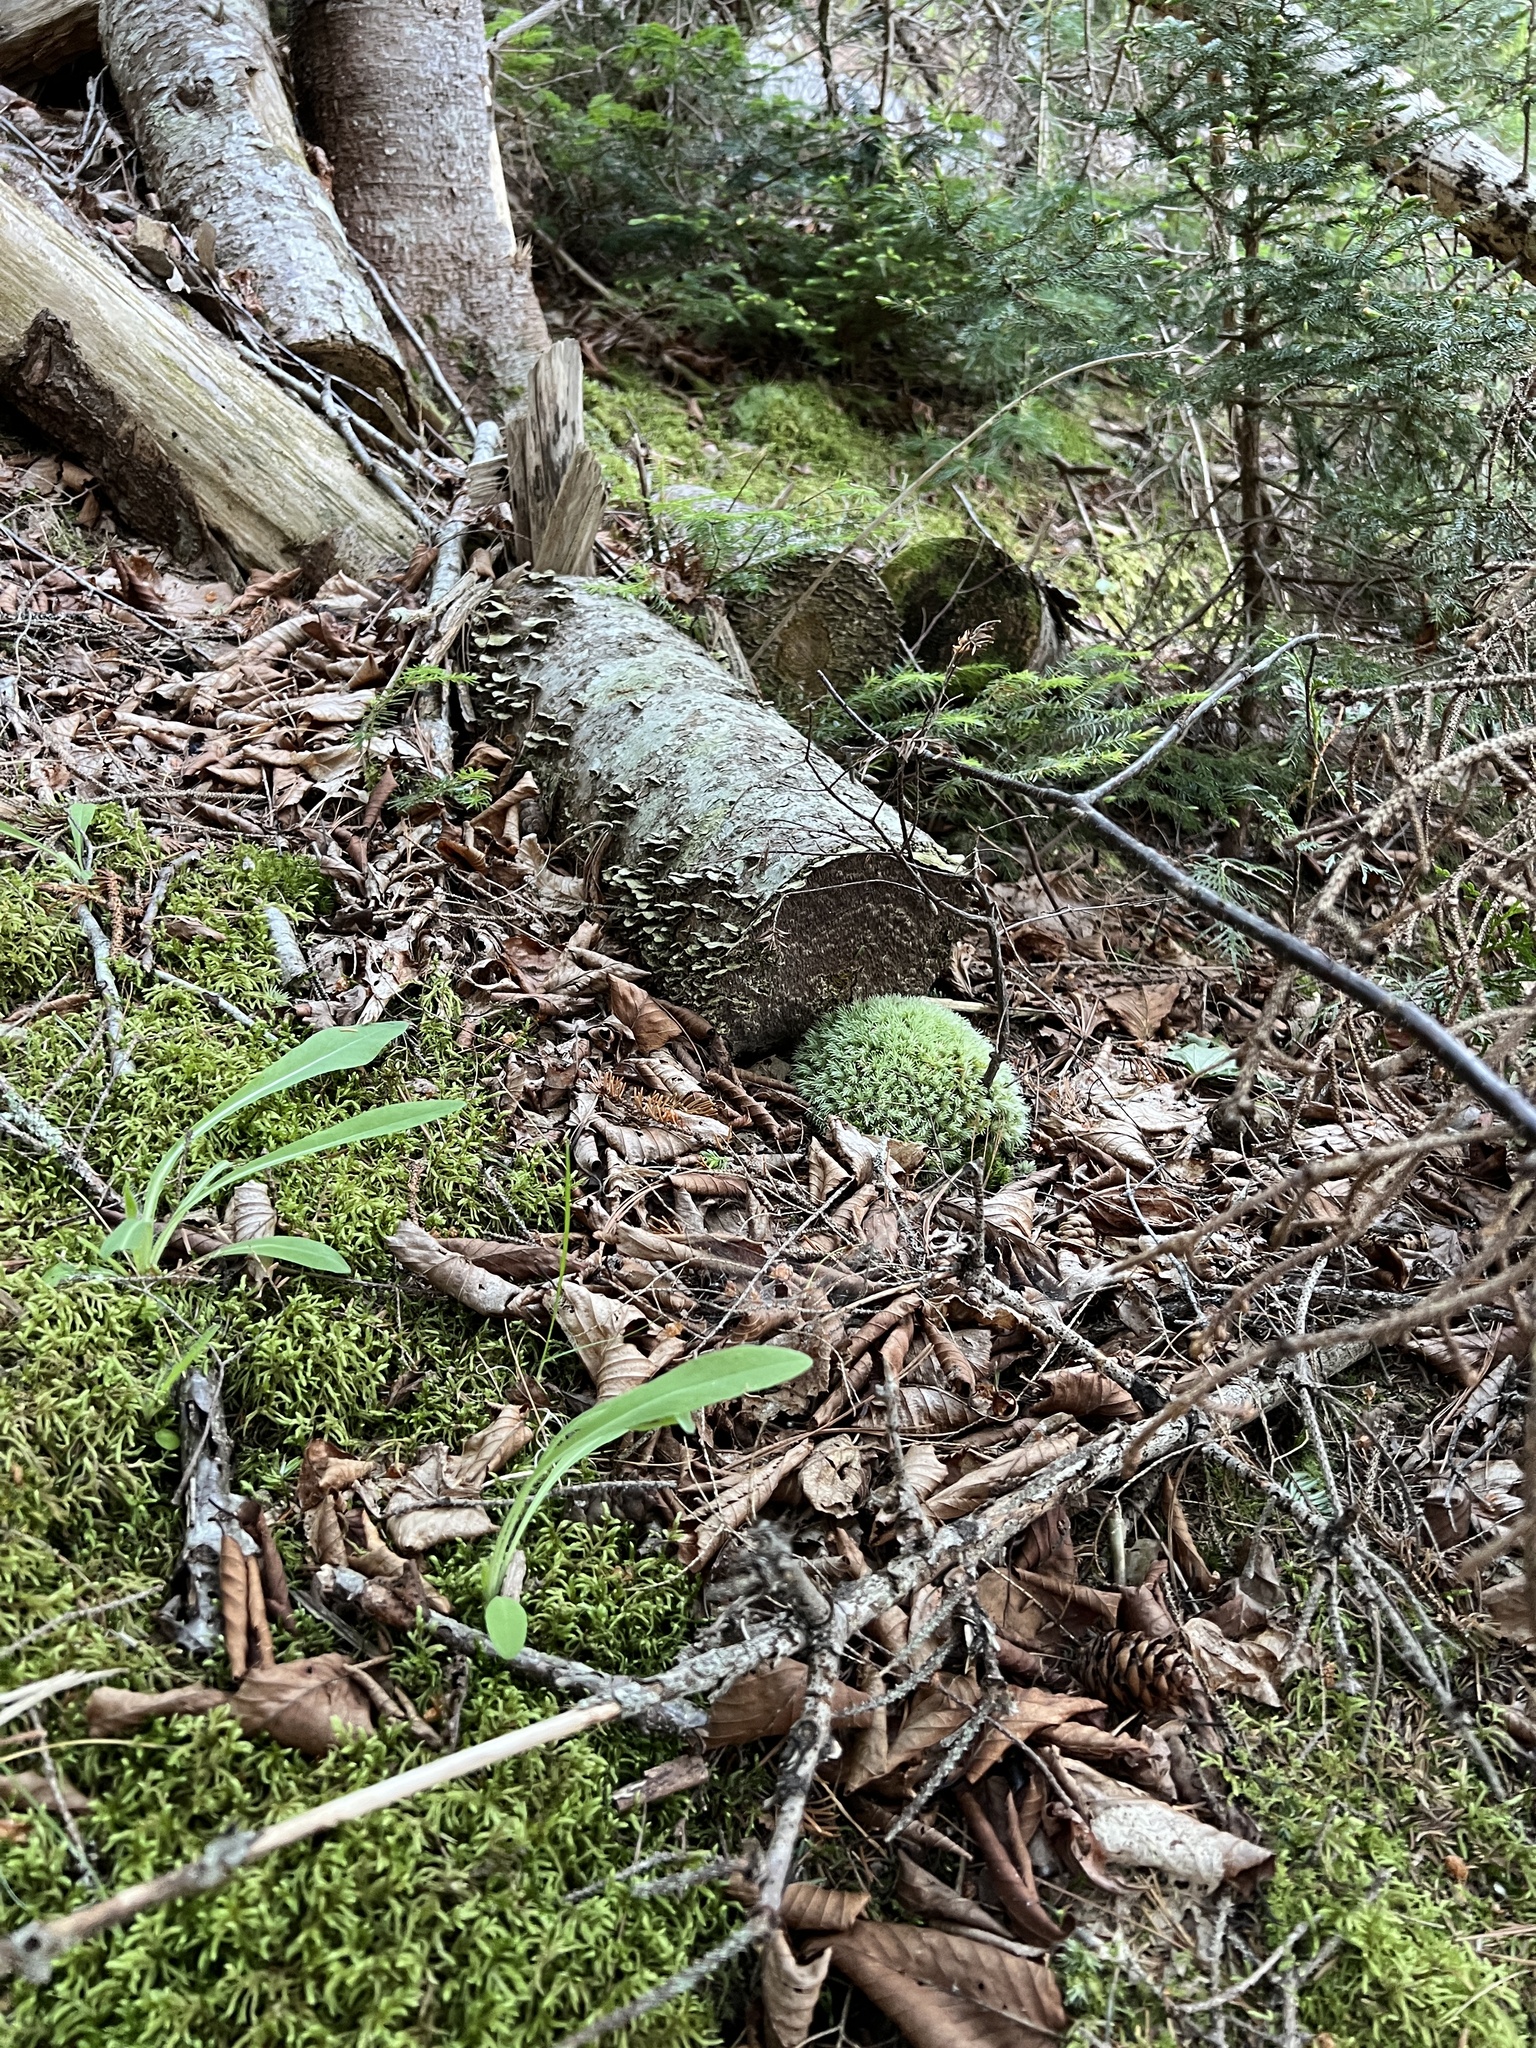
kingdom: Plantae
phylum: Bryophyta
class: Bryopsida
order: Dicranales
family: Leucobryaceae
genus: Leucobryum
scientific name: Leucobryum glaucum
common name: Large white-moss
